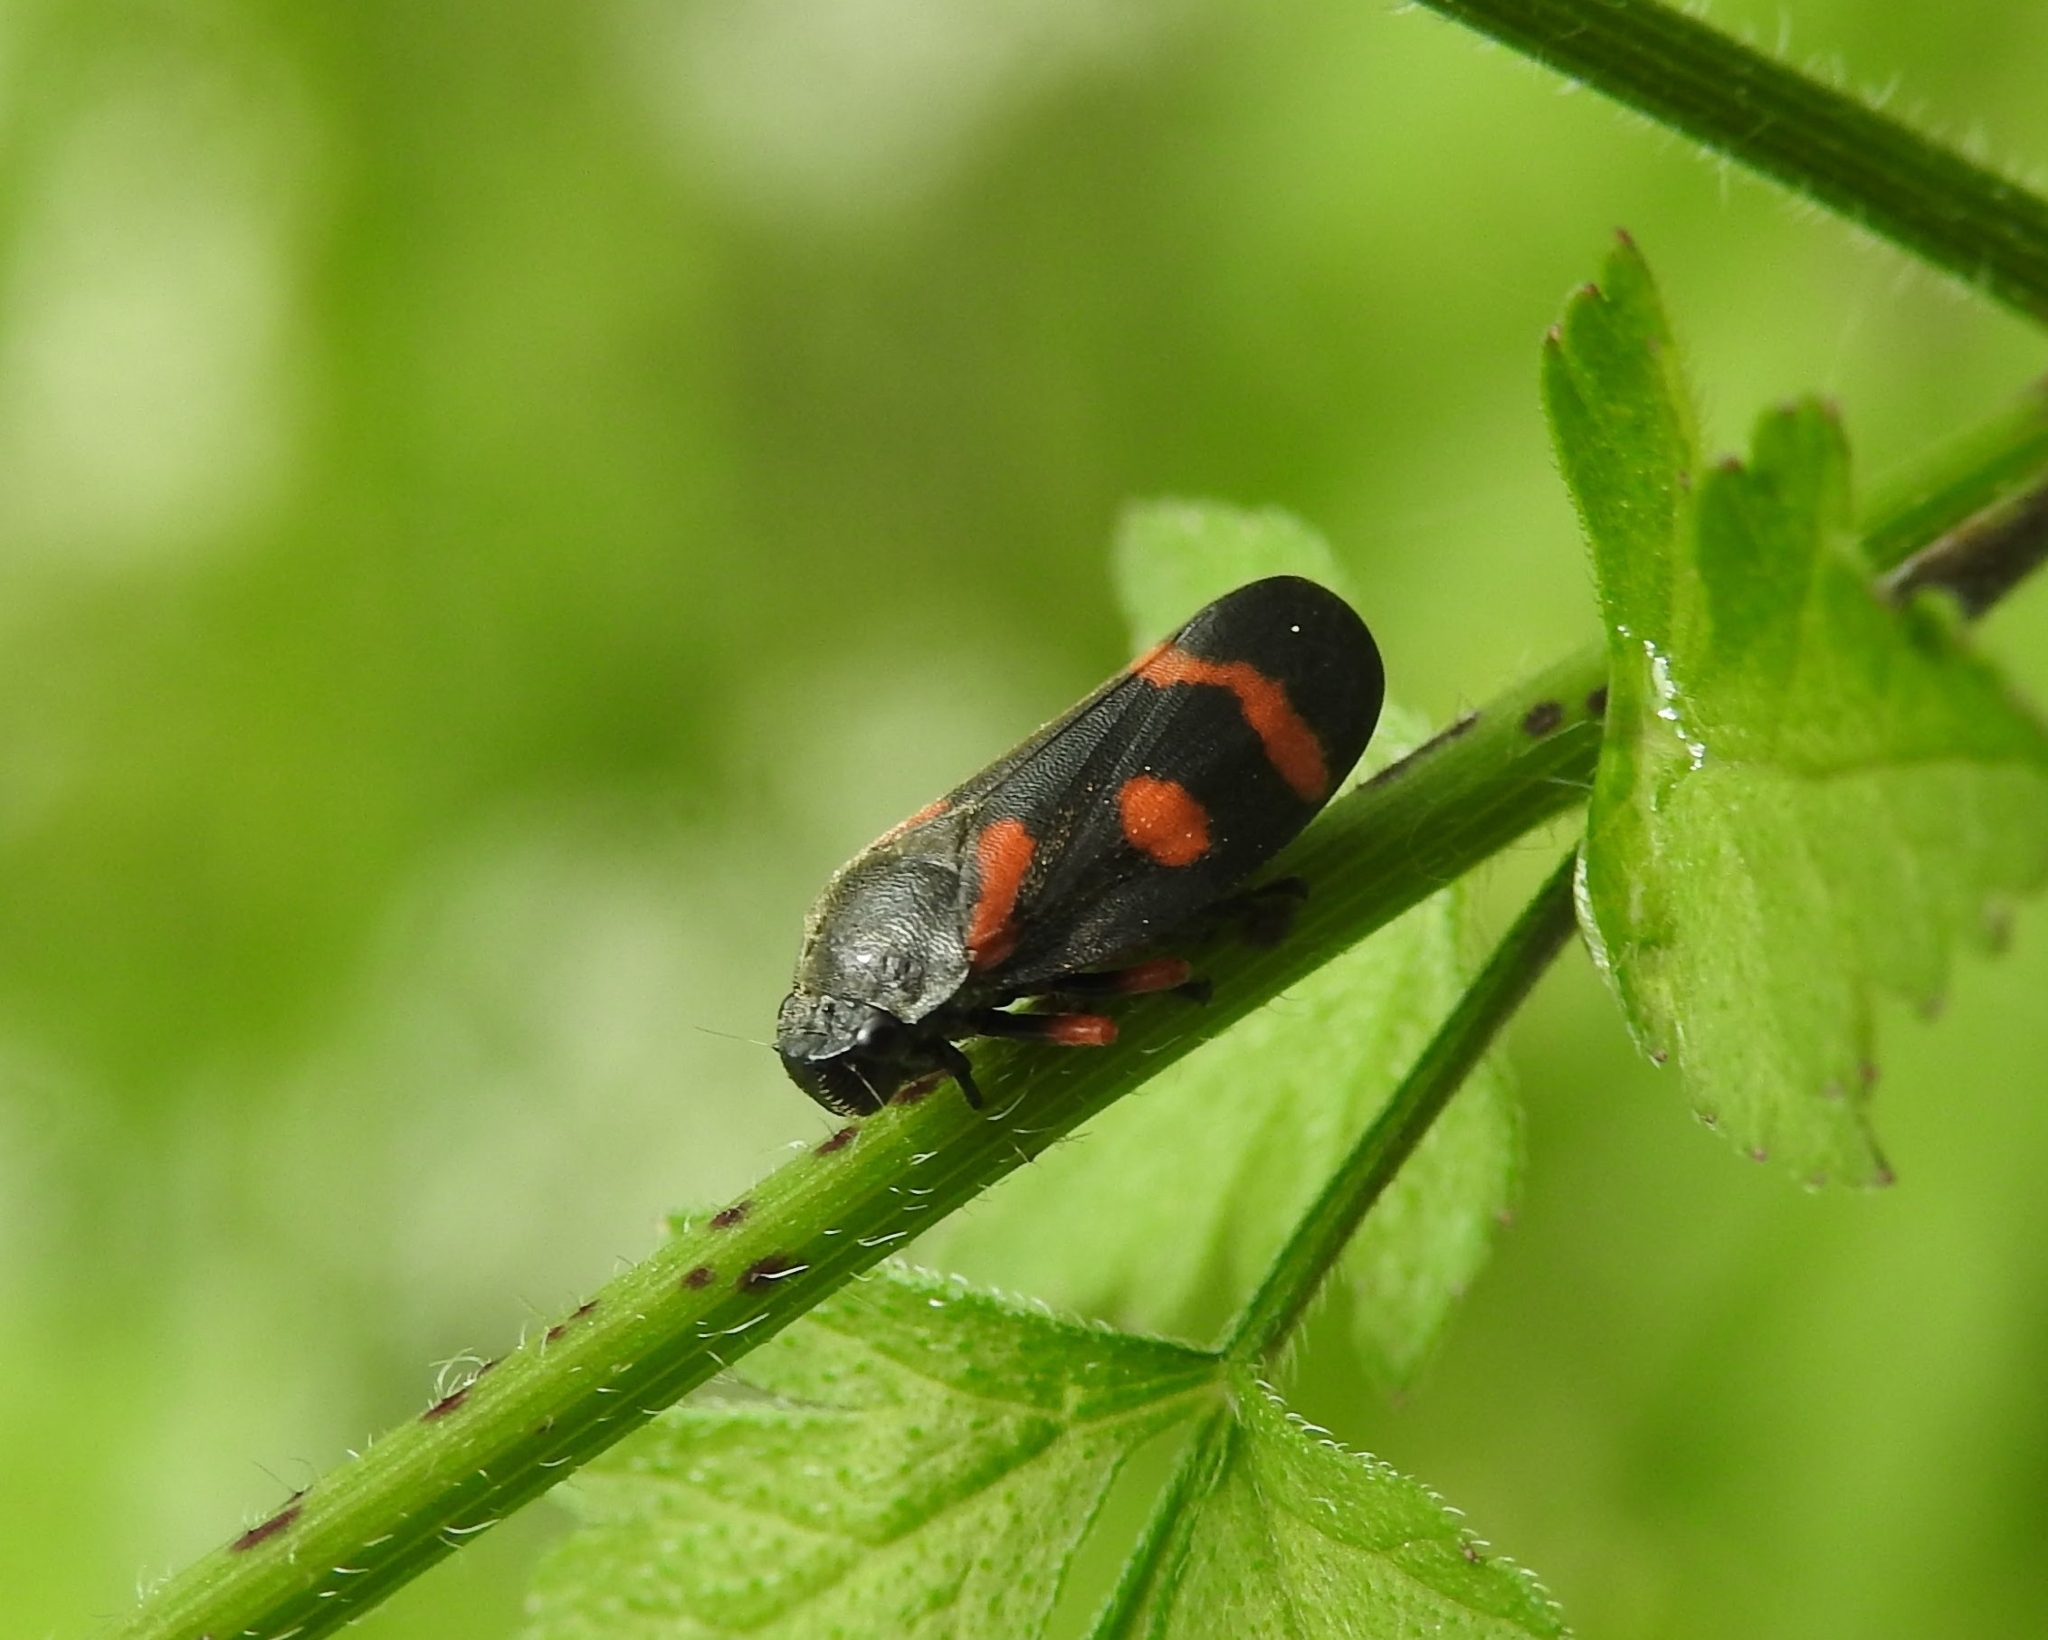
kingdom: Animalia
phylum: Arthropoda
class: Insecta
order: Hemiptera
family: Cercopidae
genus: Cercopis
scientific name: Cercopis intermedia
